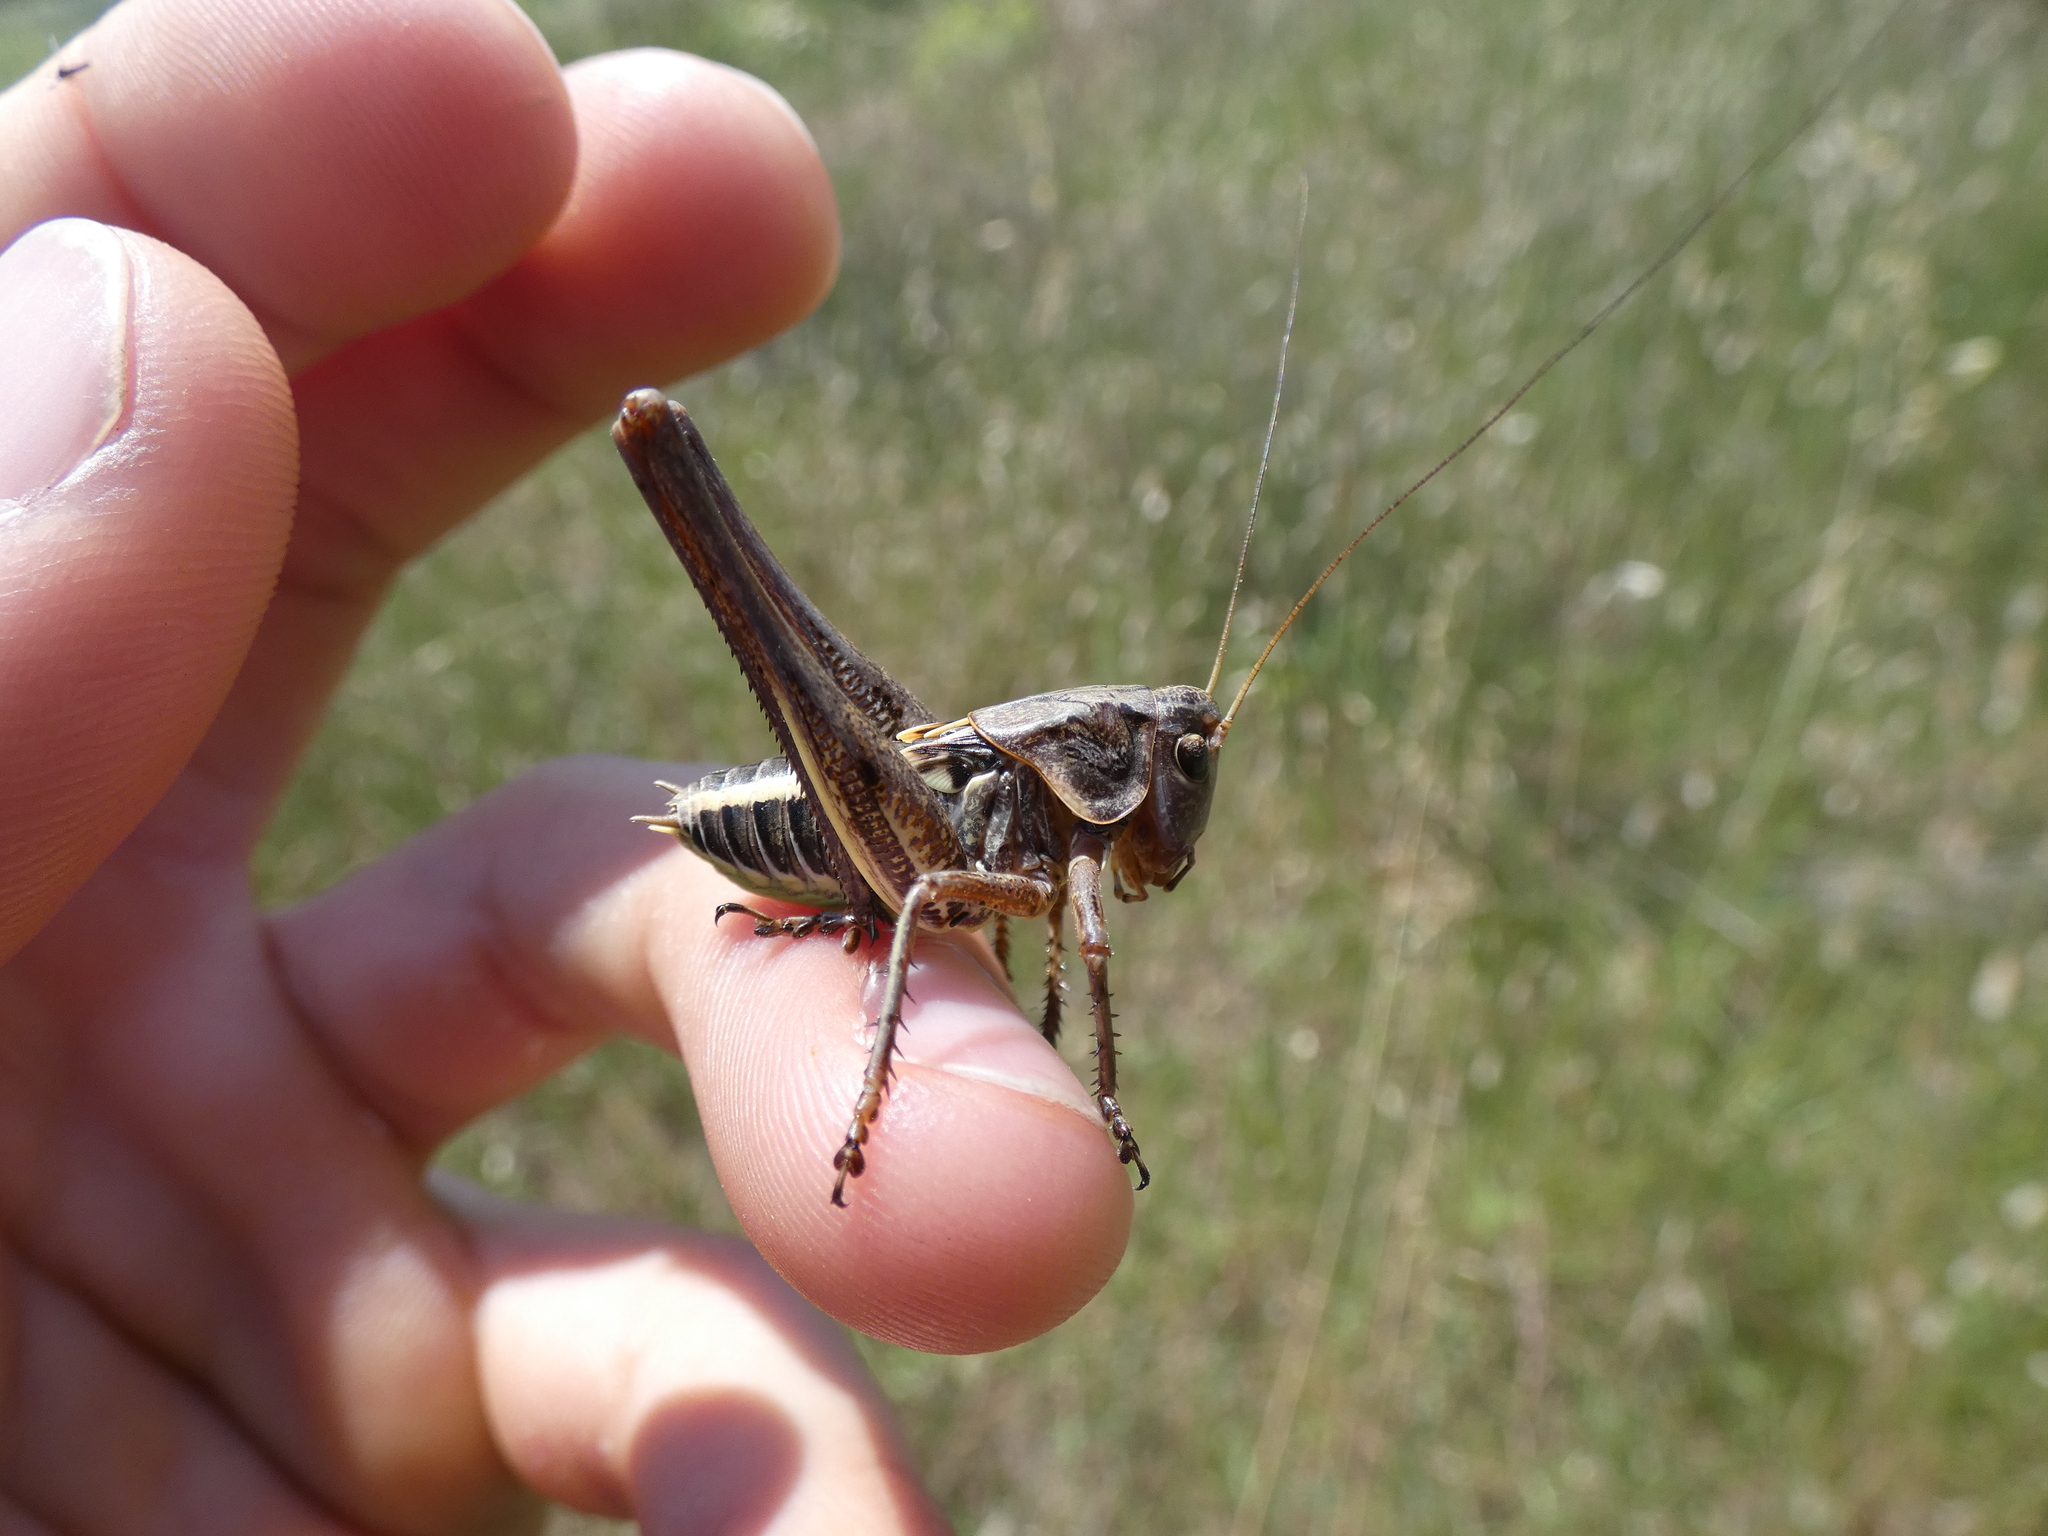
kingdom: Animalia
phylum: Arthropoda
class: Insecta
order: Orthoptera
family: Tettigoniidae
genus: Decticus
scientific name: Decticus albifrons
